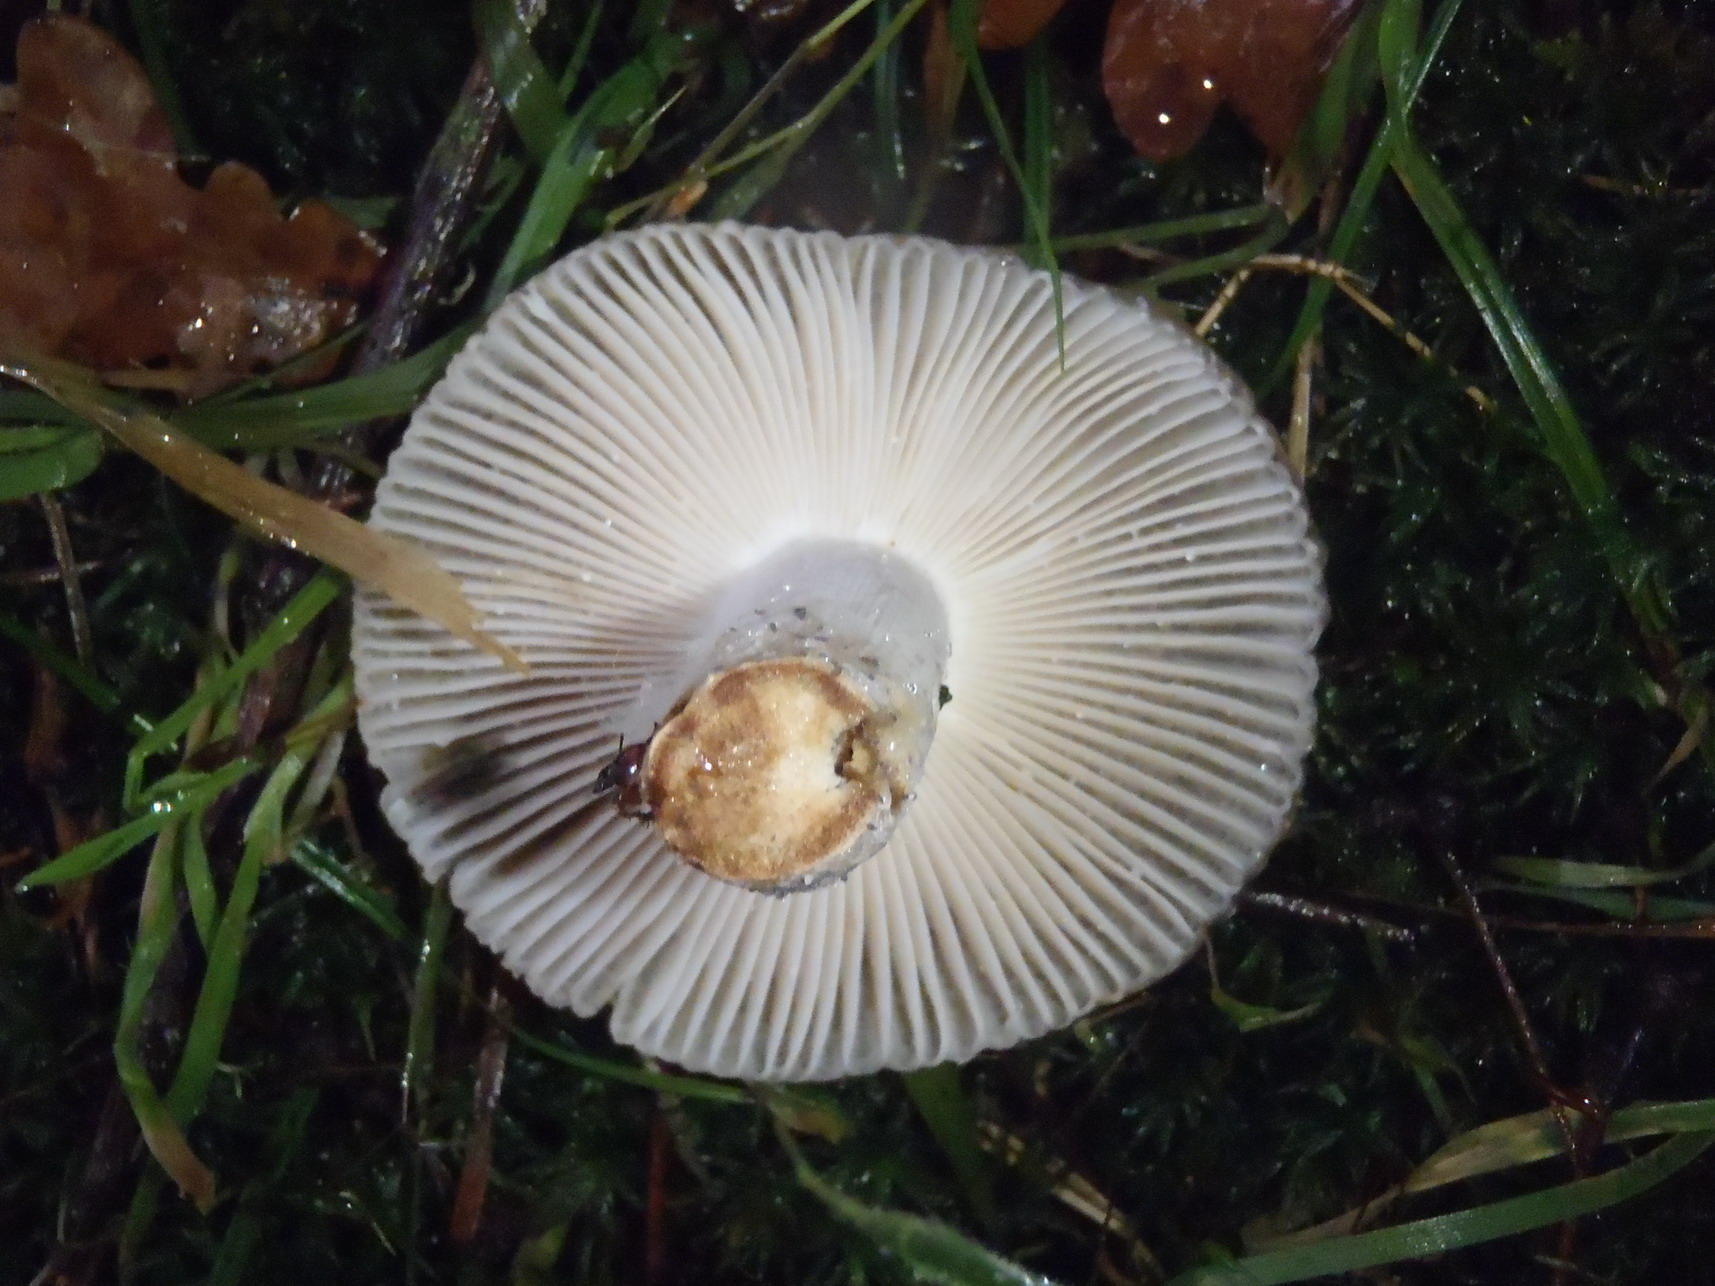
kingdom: Fungi
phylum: Basidiomycota
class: Agaricomycetes
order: Russulales
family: Russulaceae
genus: Russula
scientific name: Russula sororia
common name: Sepia brittlegill
